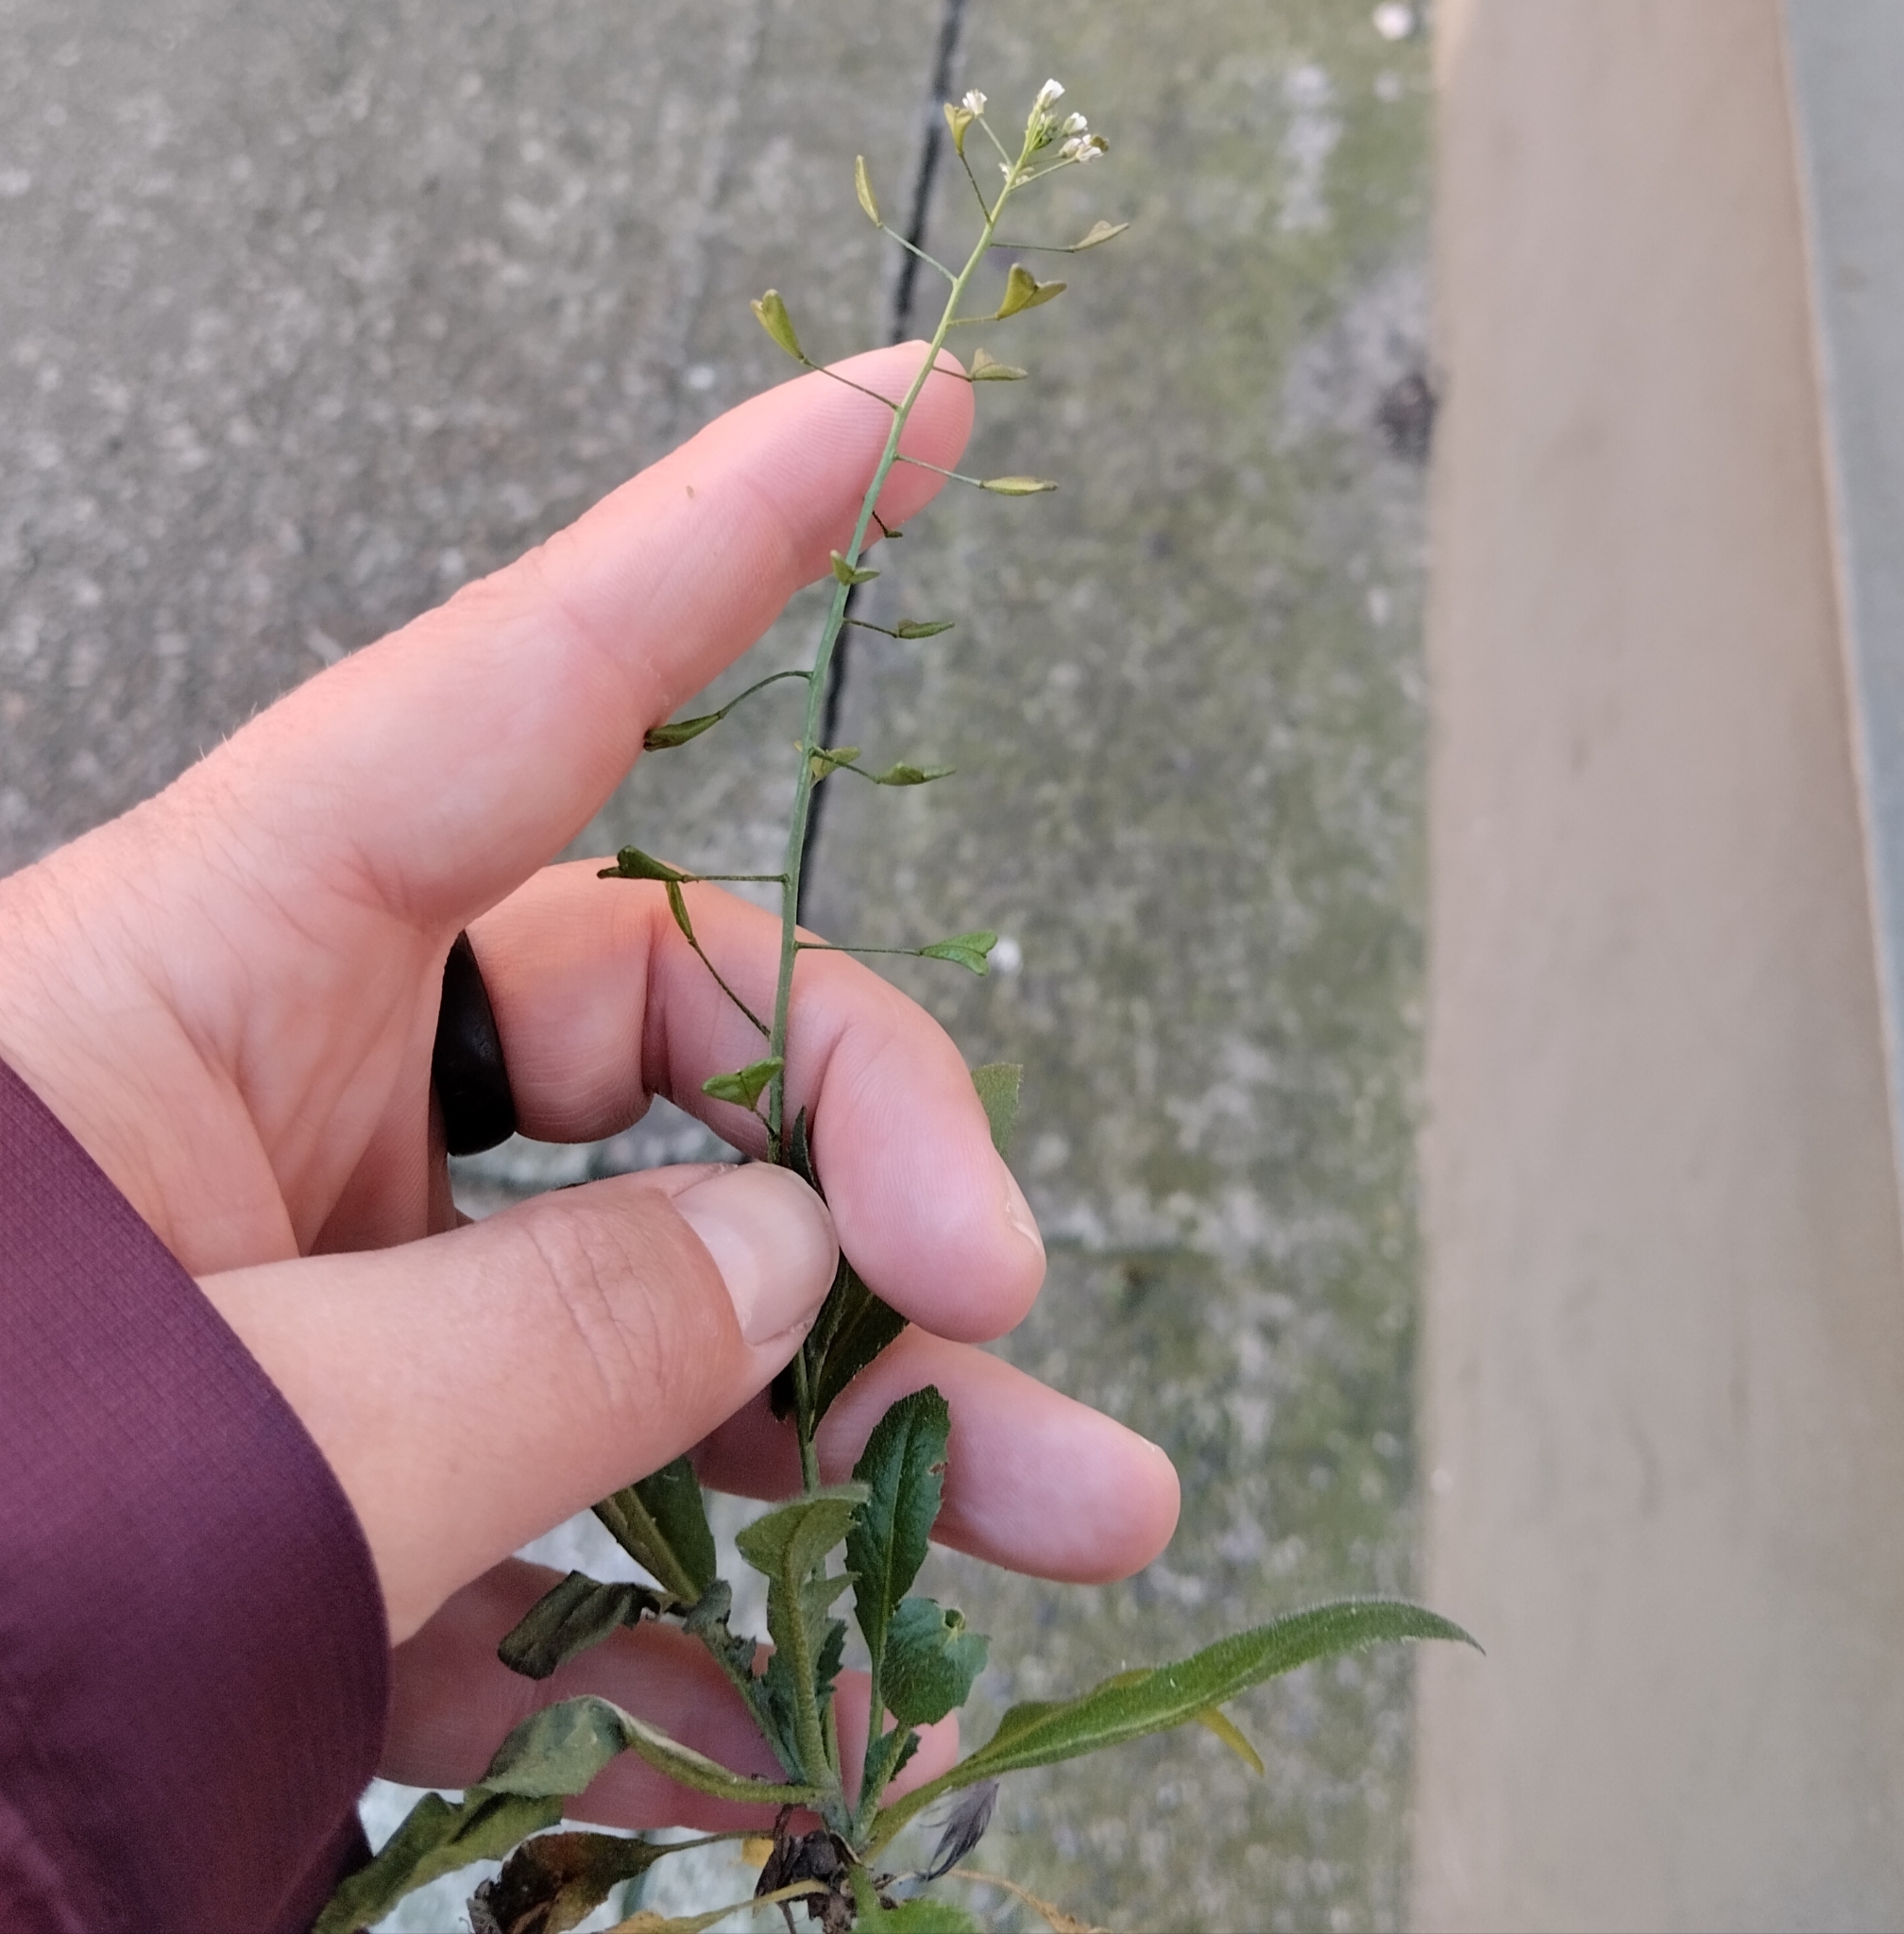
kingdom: Plantae
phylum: Tracheophyta
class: Magnoliopsida
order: Brassicales
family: Brassicaceae
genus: Capsella
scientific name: Capsella bursa-pastoris
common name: Shepherd's purse
